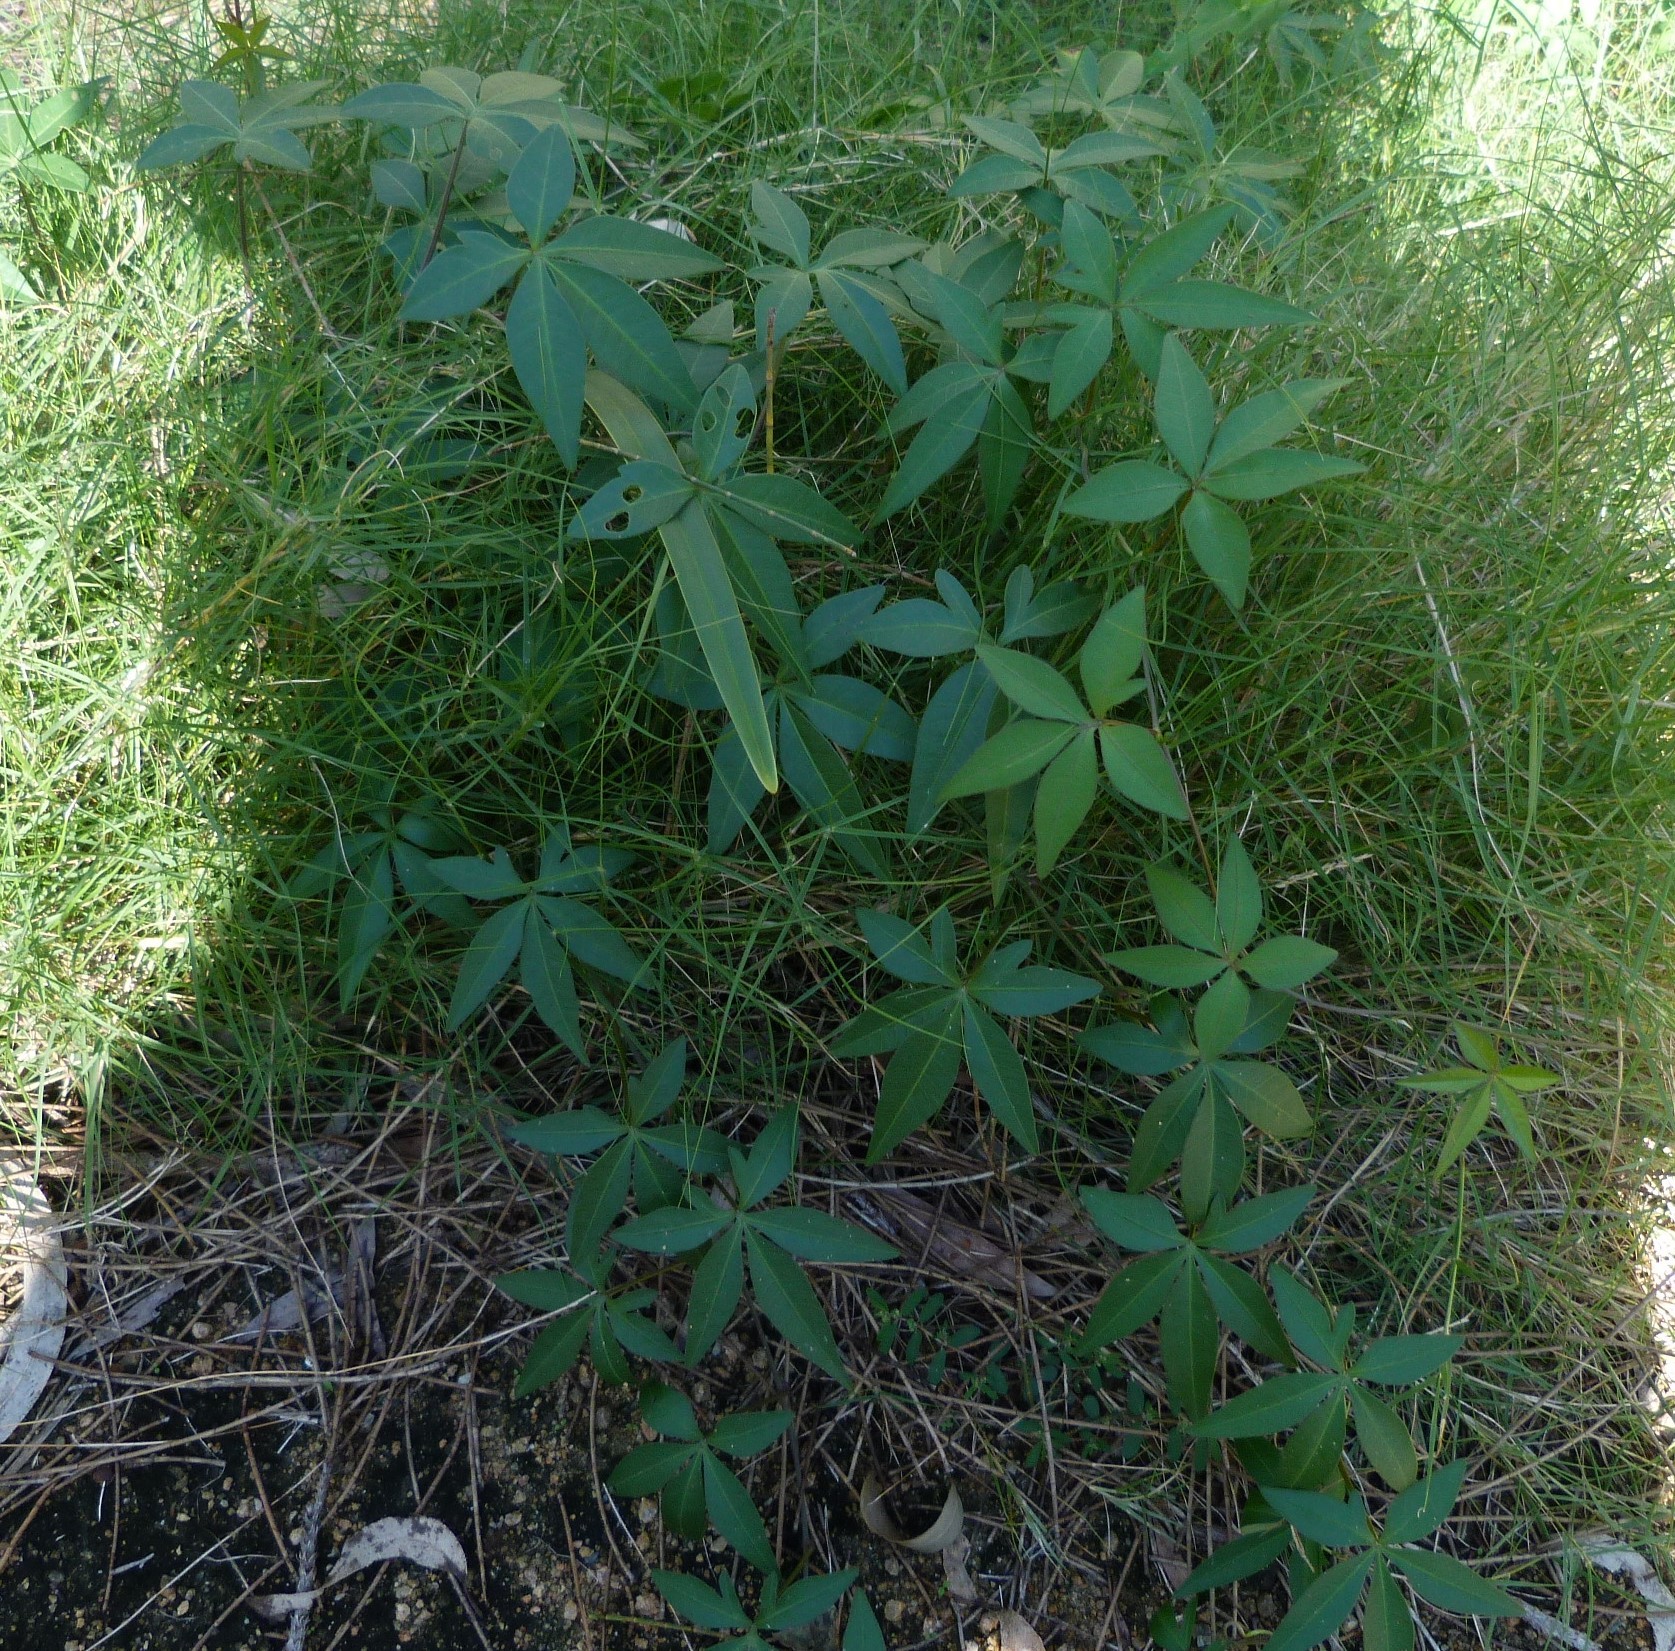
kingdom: Plantae
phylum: Tracheophyta
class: Magnoliopsida
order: Solanales
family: Convolvulaceae
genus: Ipomoea
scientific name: Ipomoea cairica
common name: Mile a minute vine
